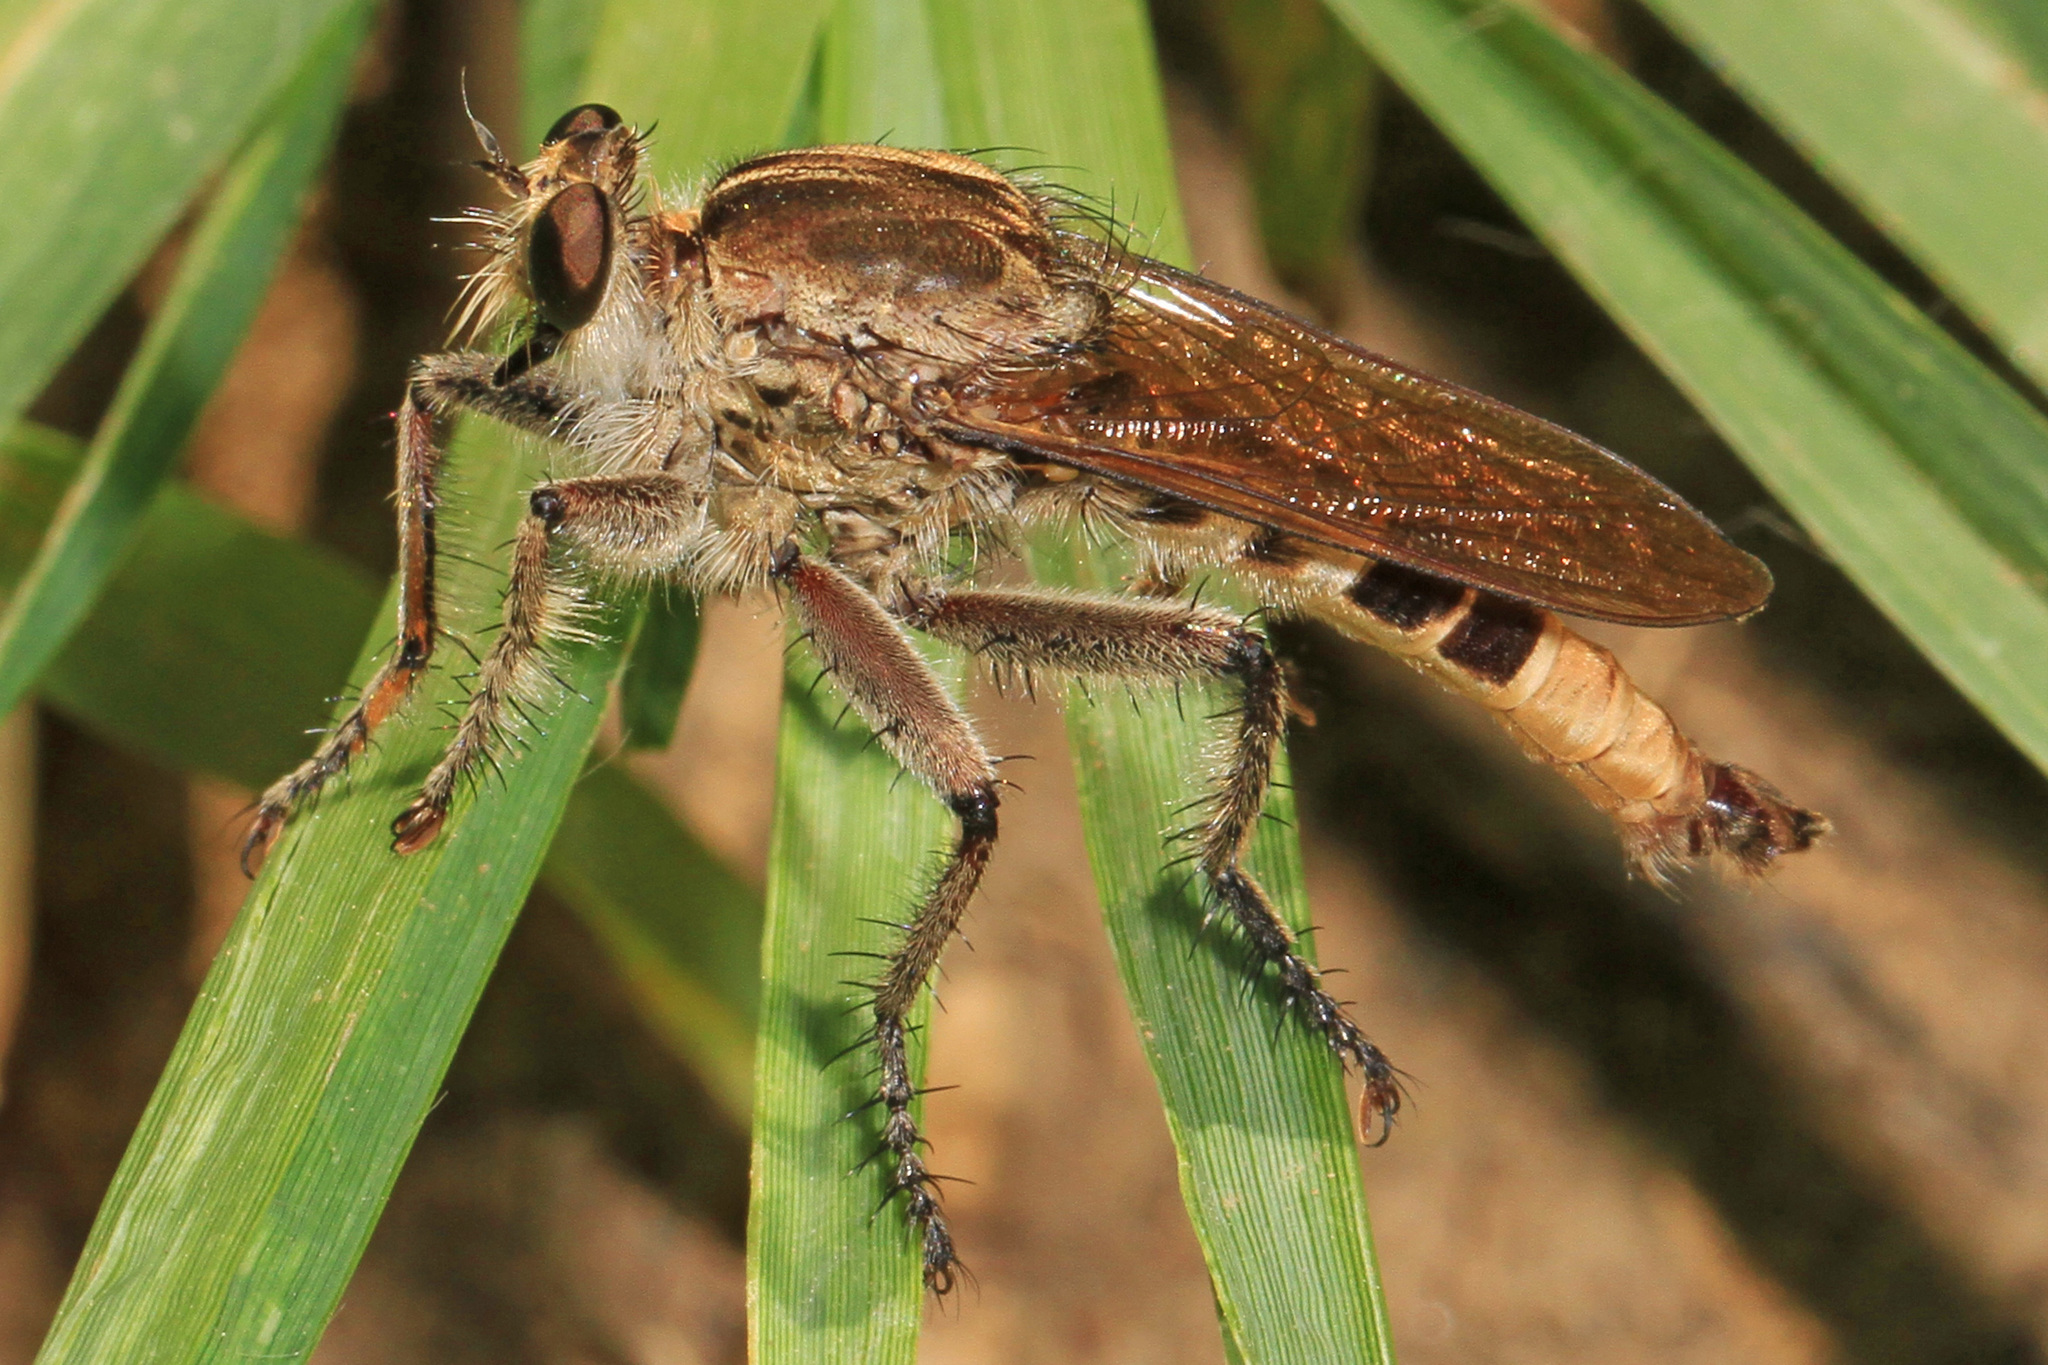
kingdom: Animalia
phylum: Arthropoda
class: Insecta
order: Diptera
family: Asilidae
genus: Triorla
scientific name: Triorla interrupta
